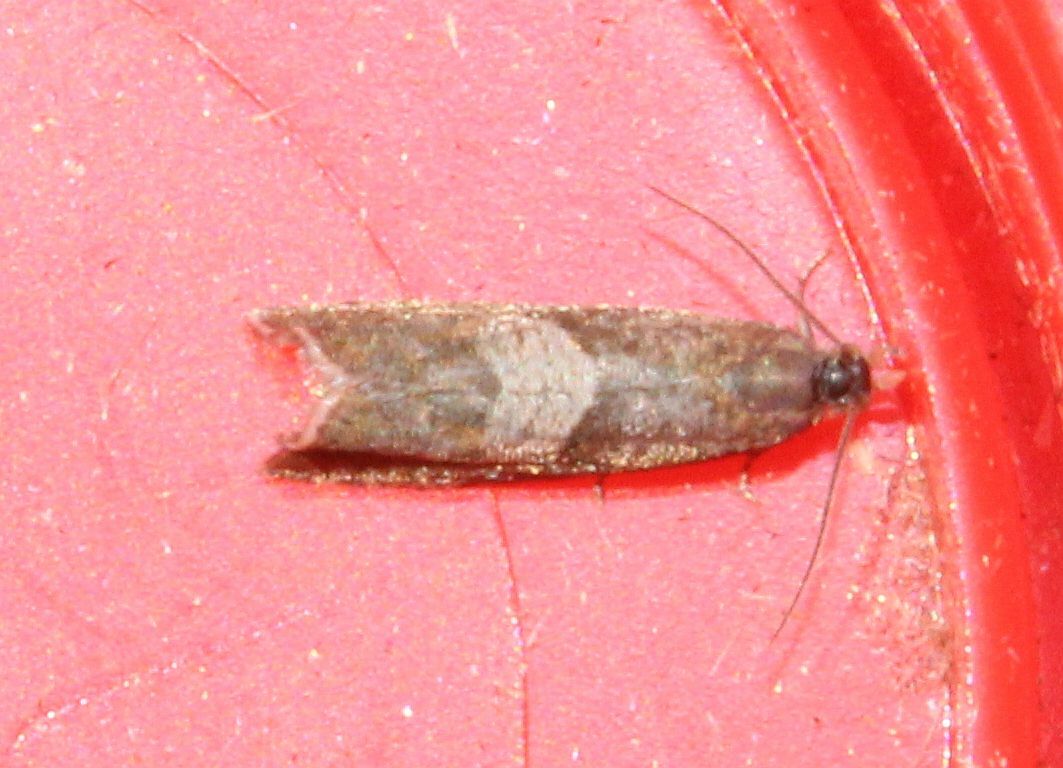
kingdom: Animalia
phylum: Arthropoda
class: Insecta
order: Lepidoptera
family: Tortricidae
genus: Dichrorampha
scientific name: Dichrorampha acuminatana
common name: Sharp-winged drill
